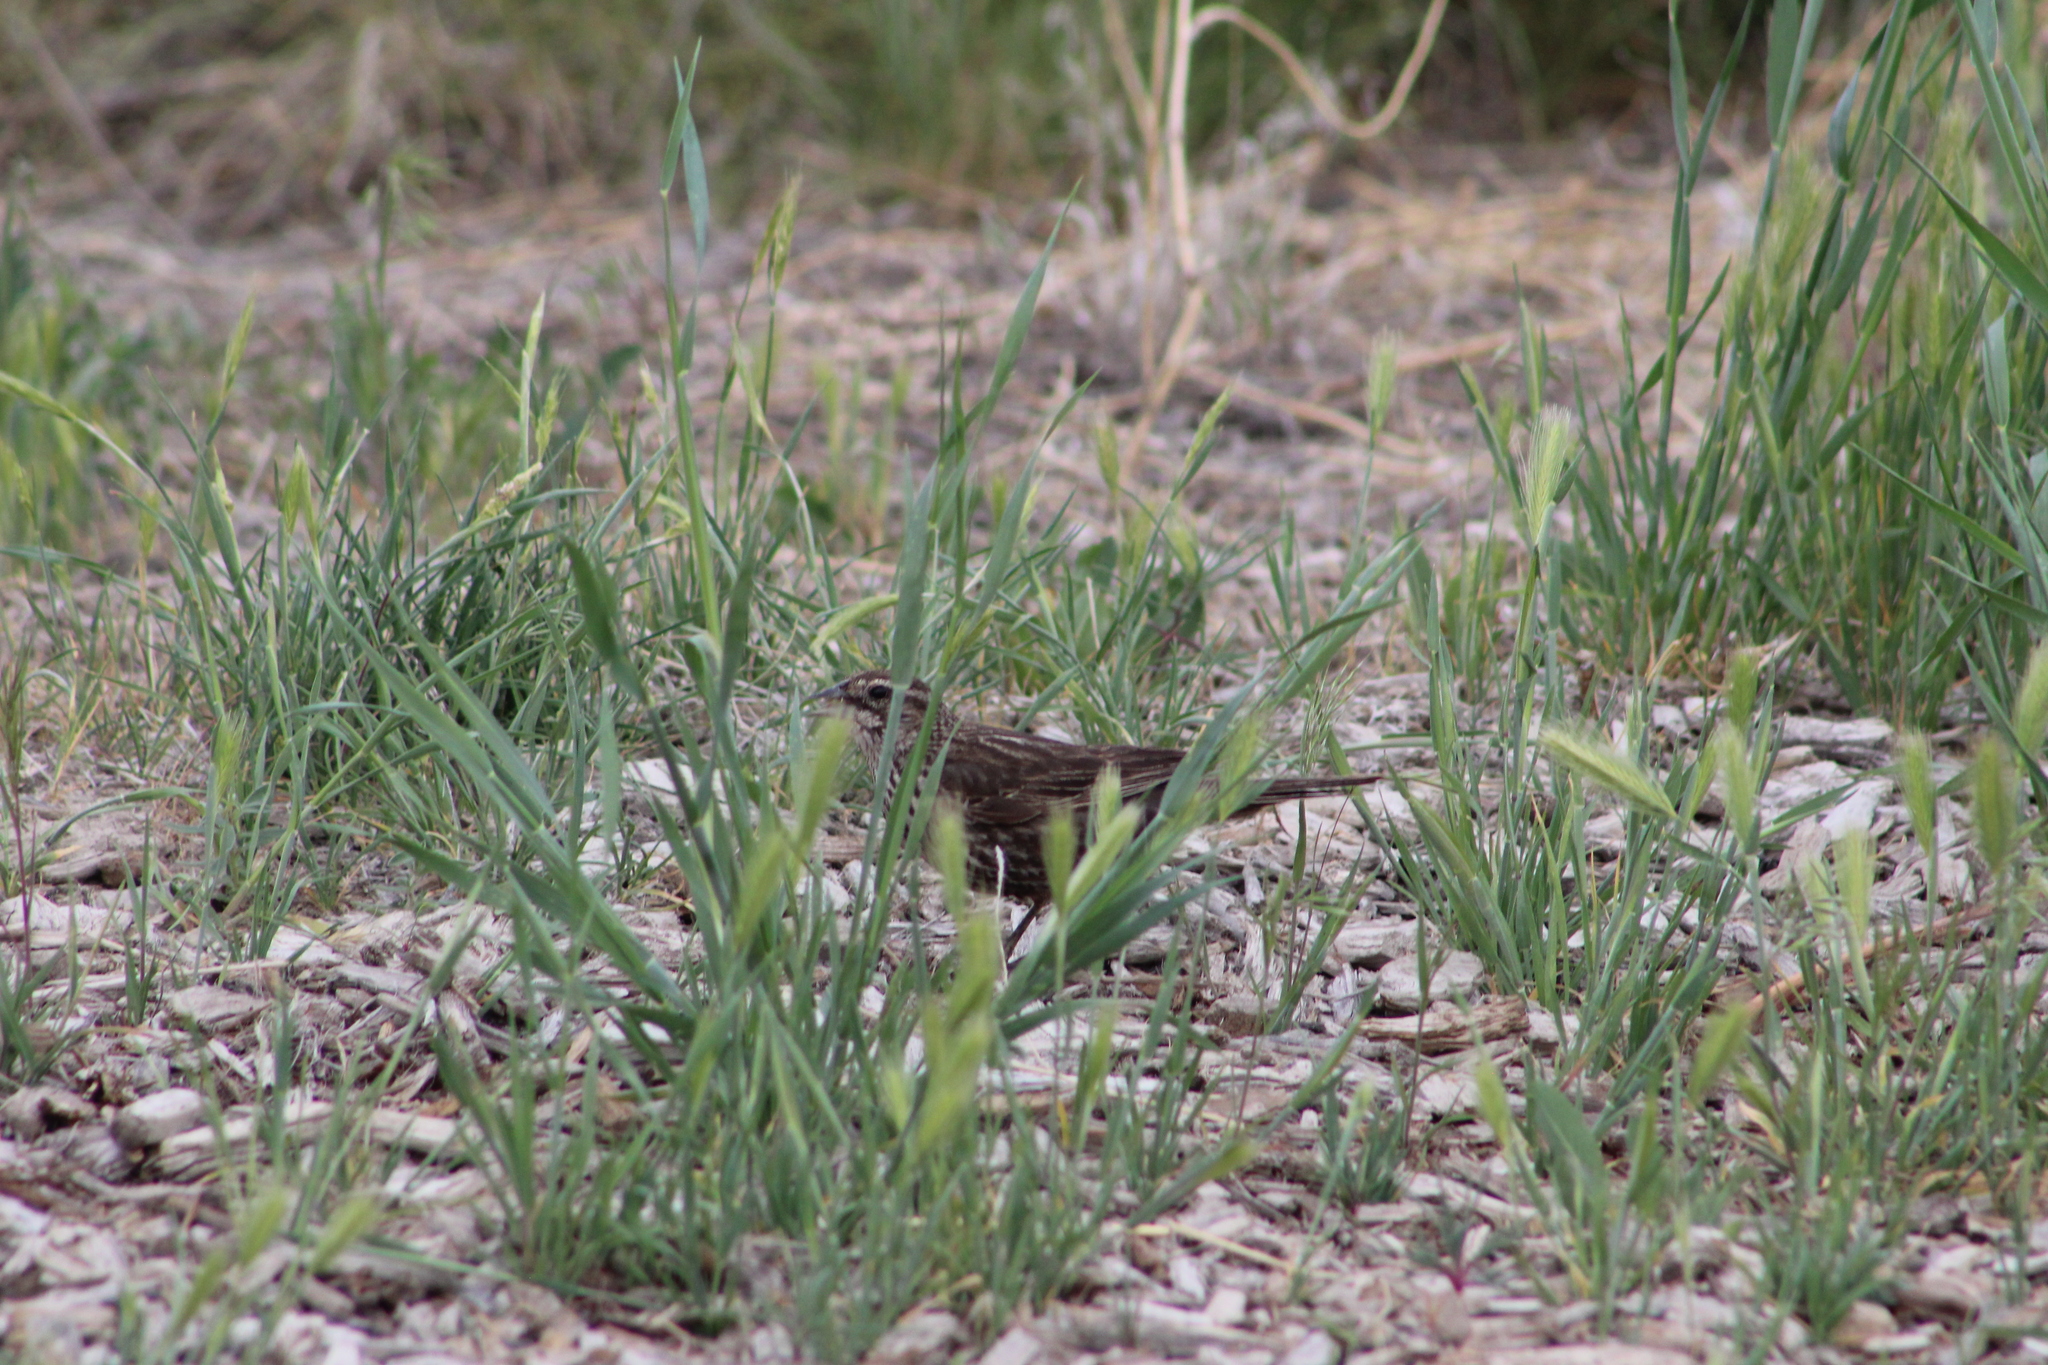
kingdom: Animalia
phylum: Chordata
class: Aves
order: Passeriformes
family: Icteridae
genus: Agelaius
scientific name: Agelaius phoeniceus
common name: Red-winged blackbird
